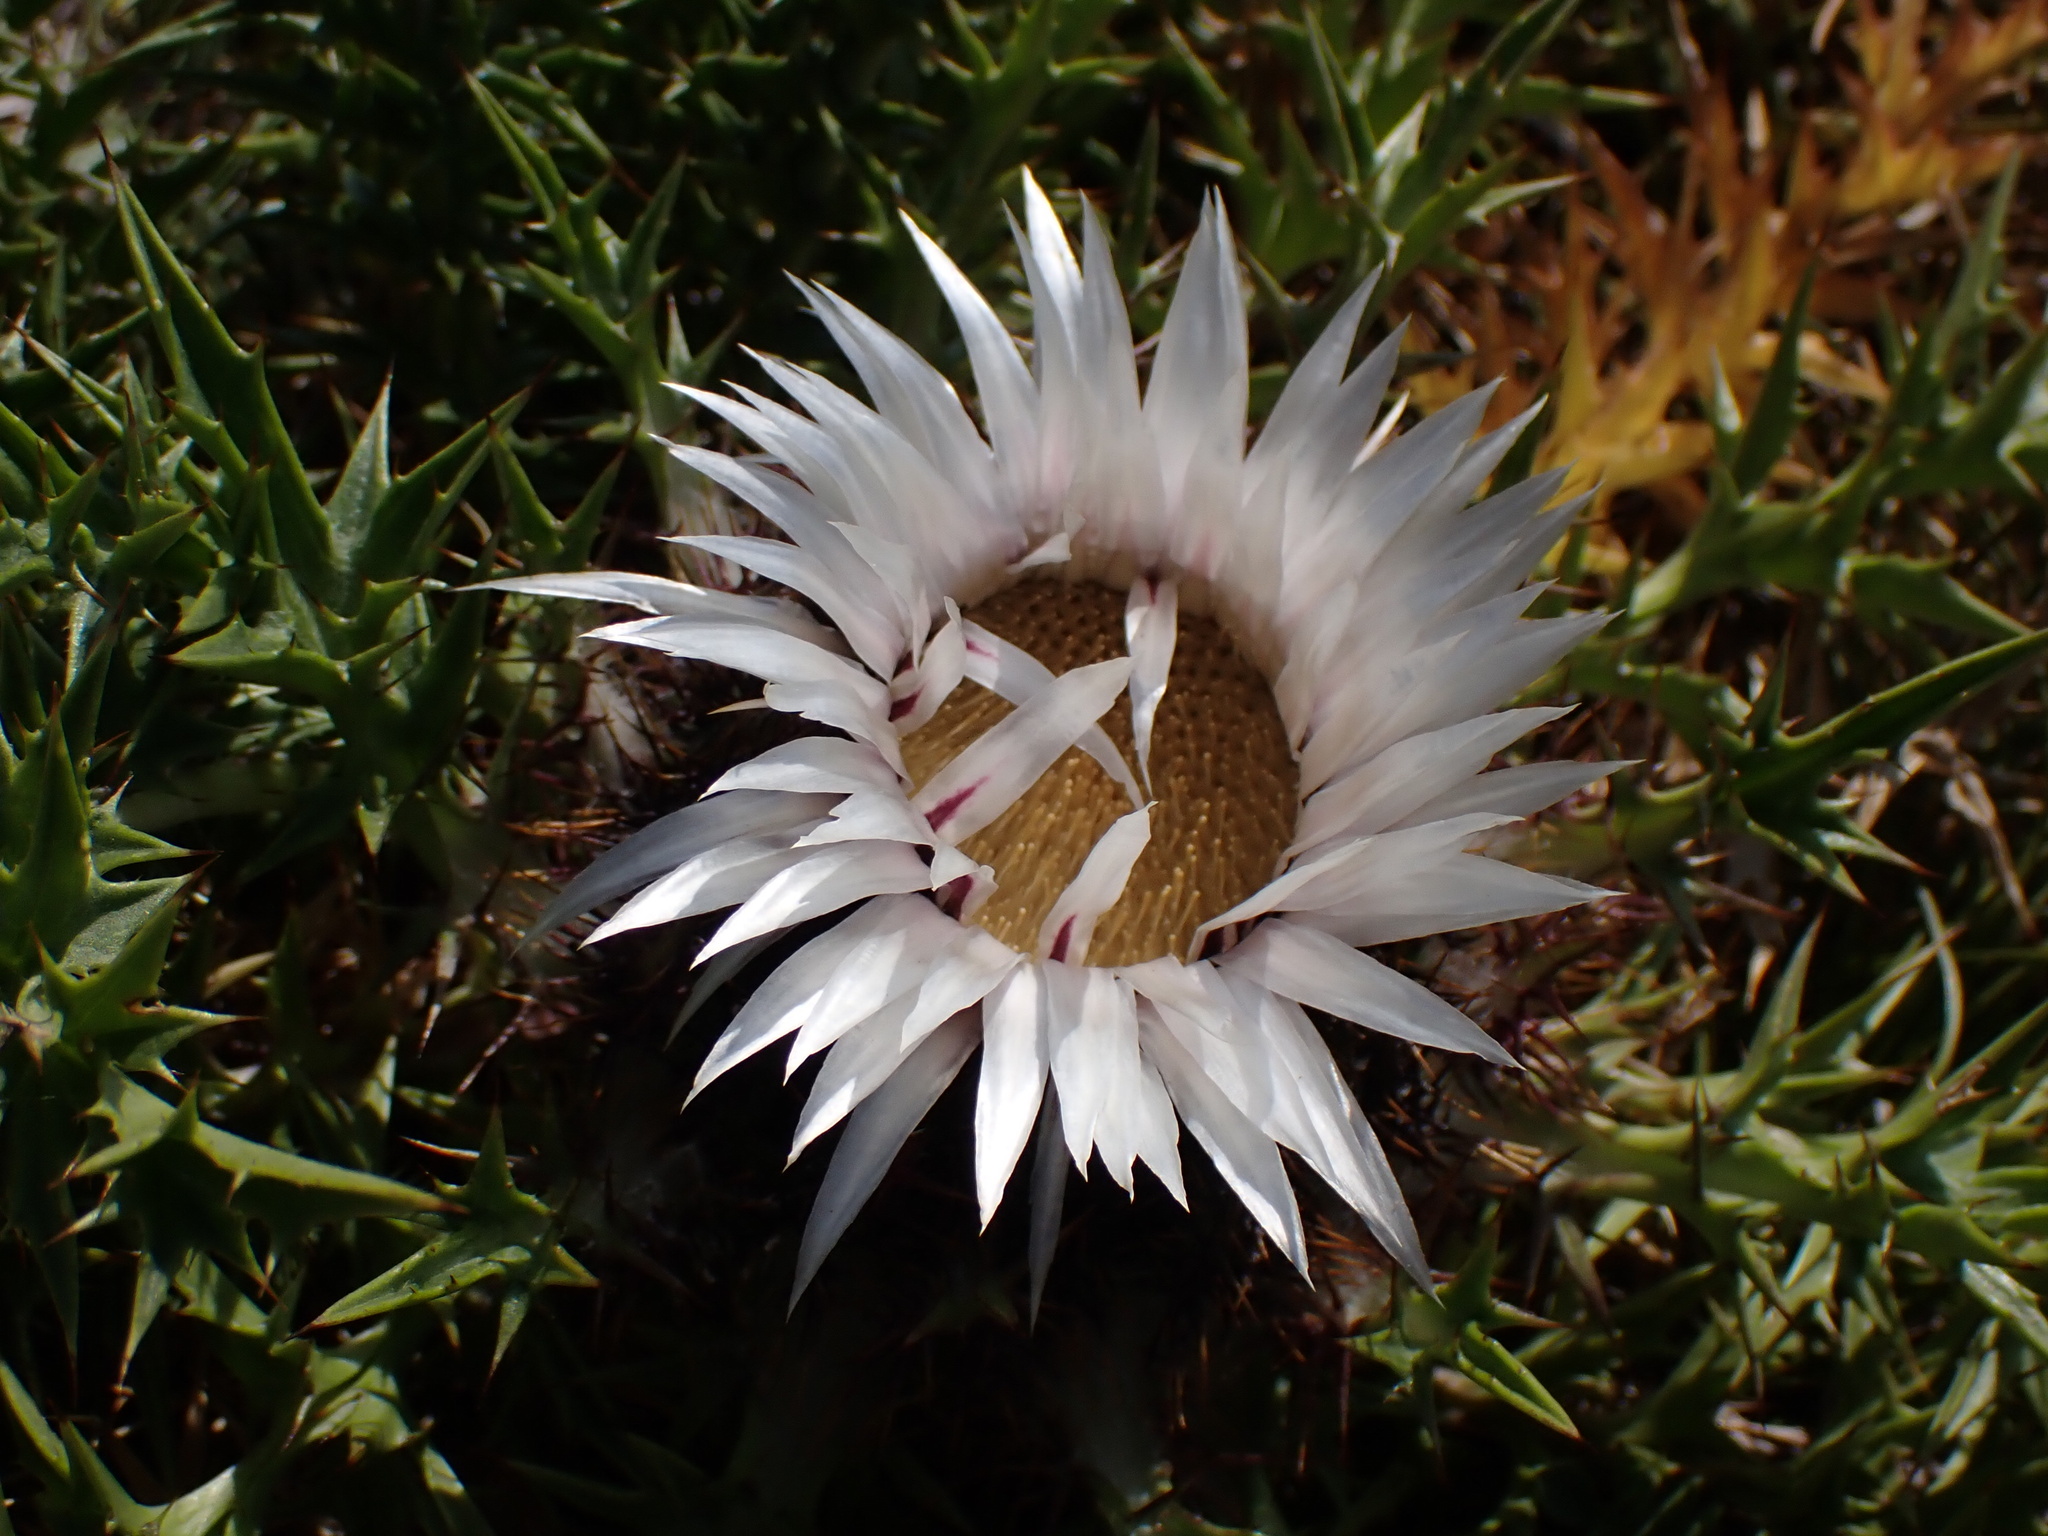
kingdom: Plantae
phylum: Tracheophyta
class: Magnoliopsida
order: Asterales
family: Asteraceae
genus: Carlina
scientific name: Carlina acaulis
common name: Stemless carline thistle
